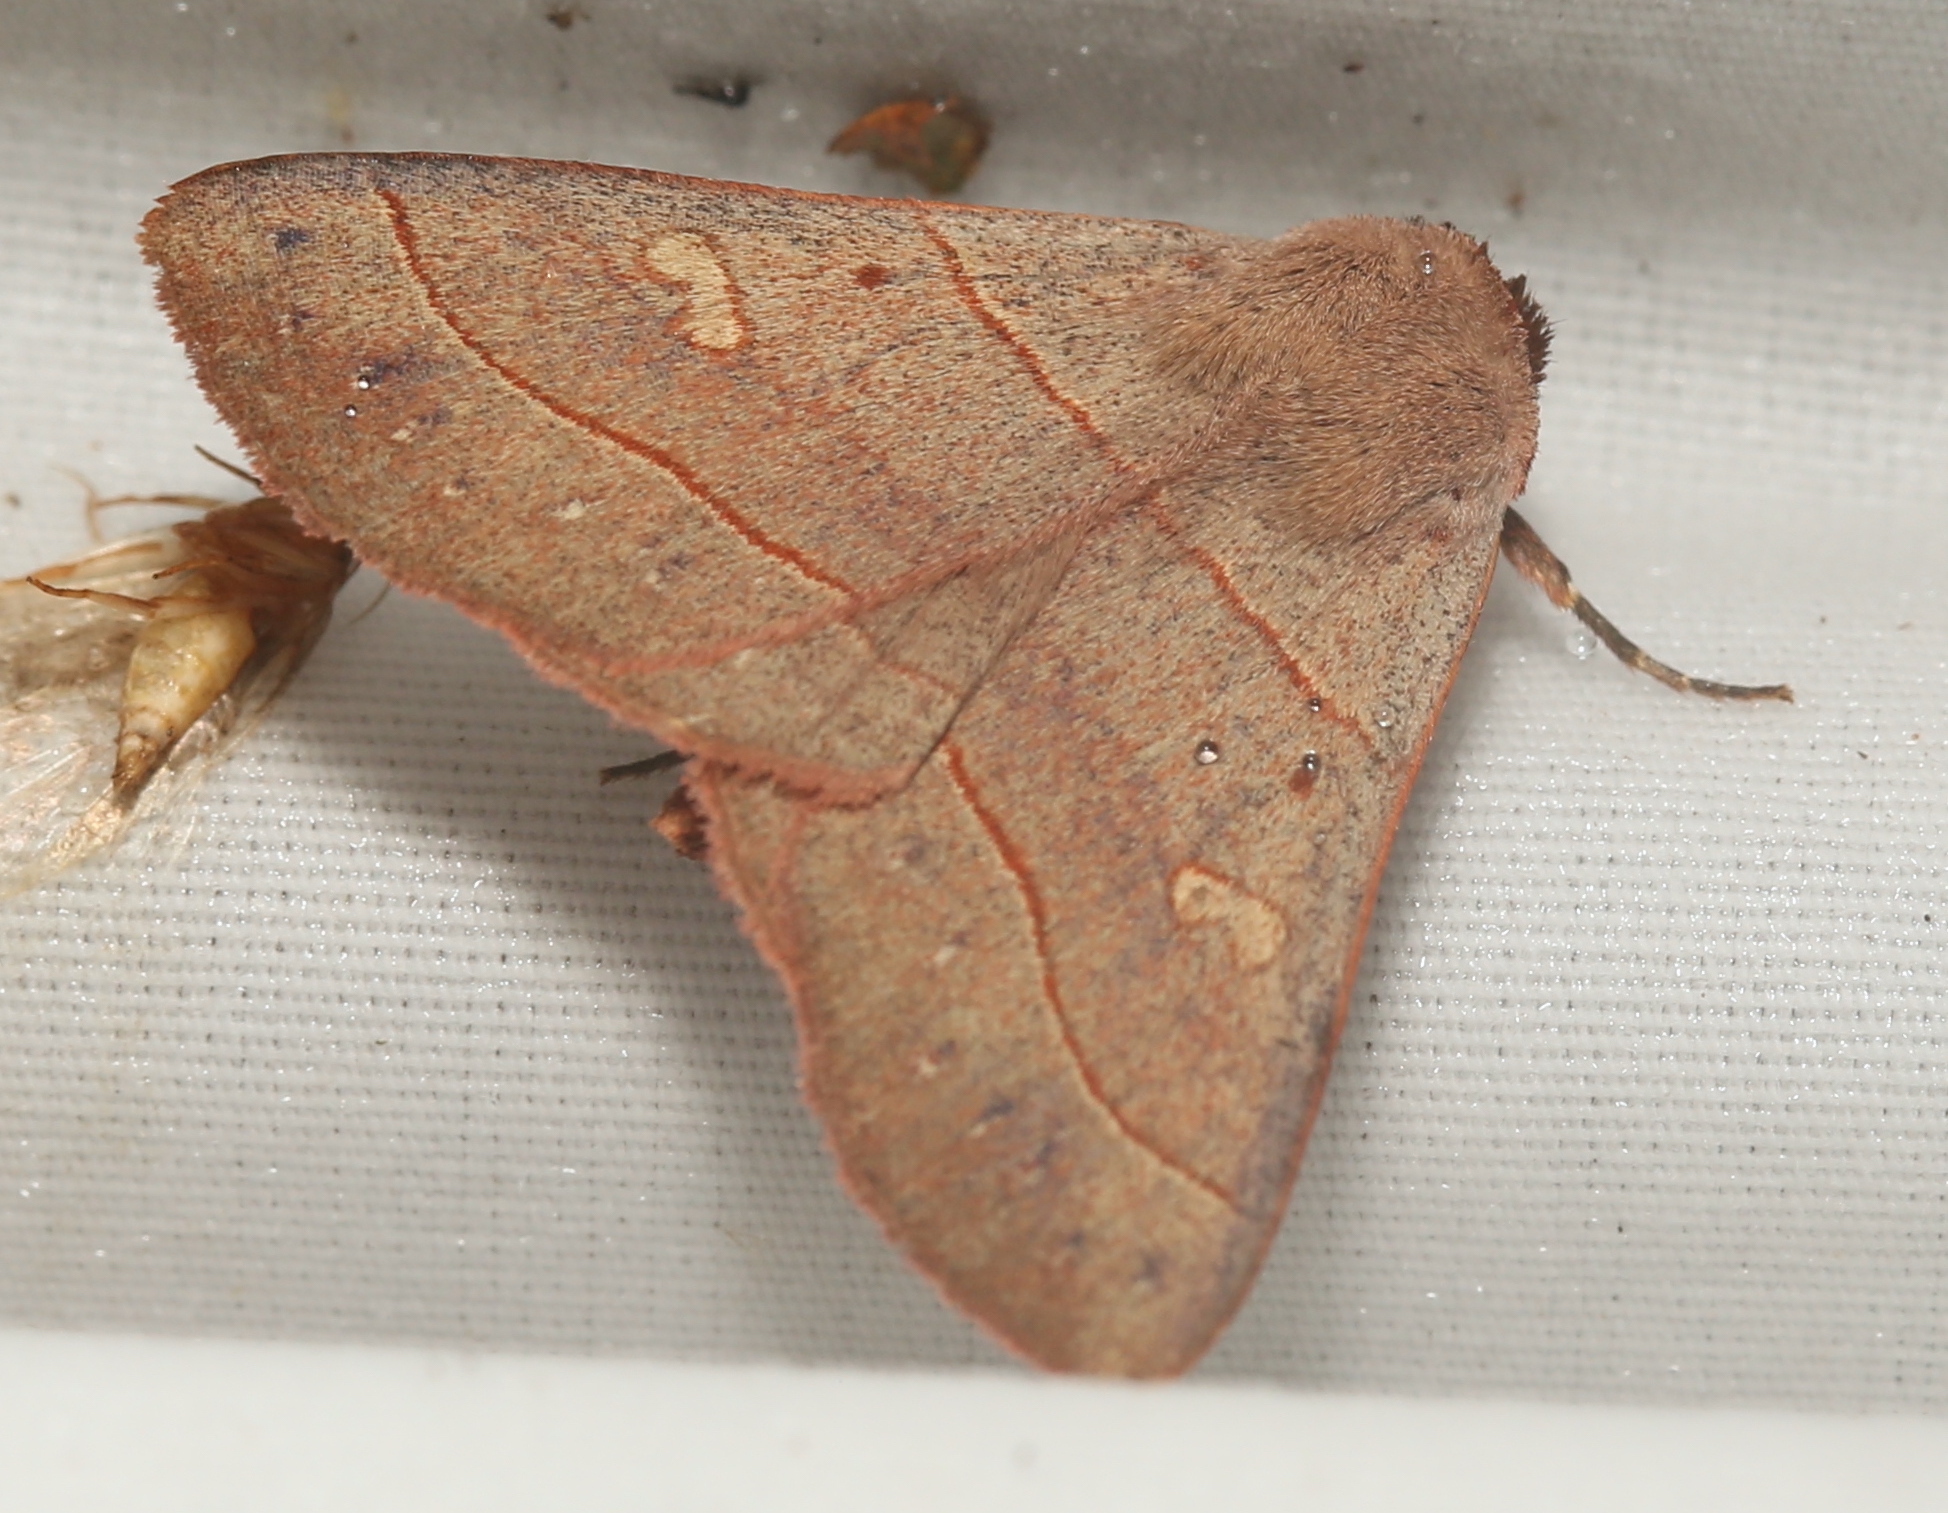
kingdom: Animalia
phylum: Arthropoda
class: Insecta
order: Lepidoptera
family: Erebidae
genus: Panopoda
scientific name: Panopoda rufimargo
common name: Red-lined panopoda moth
